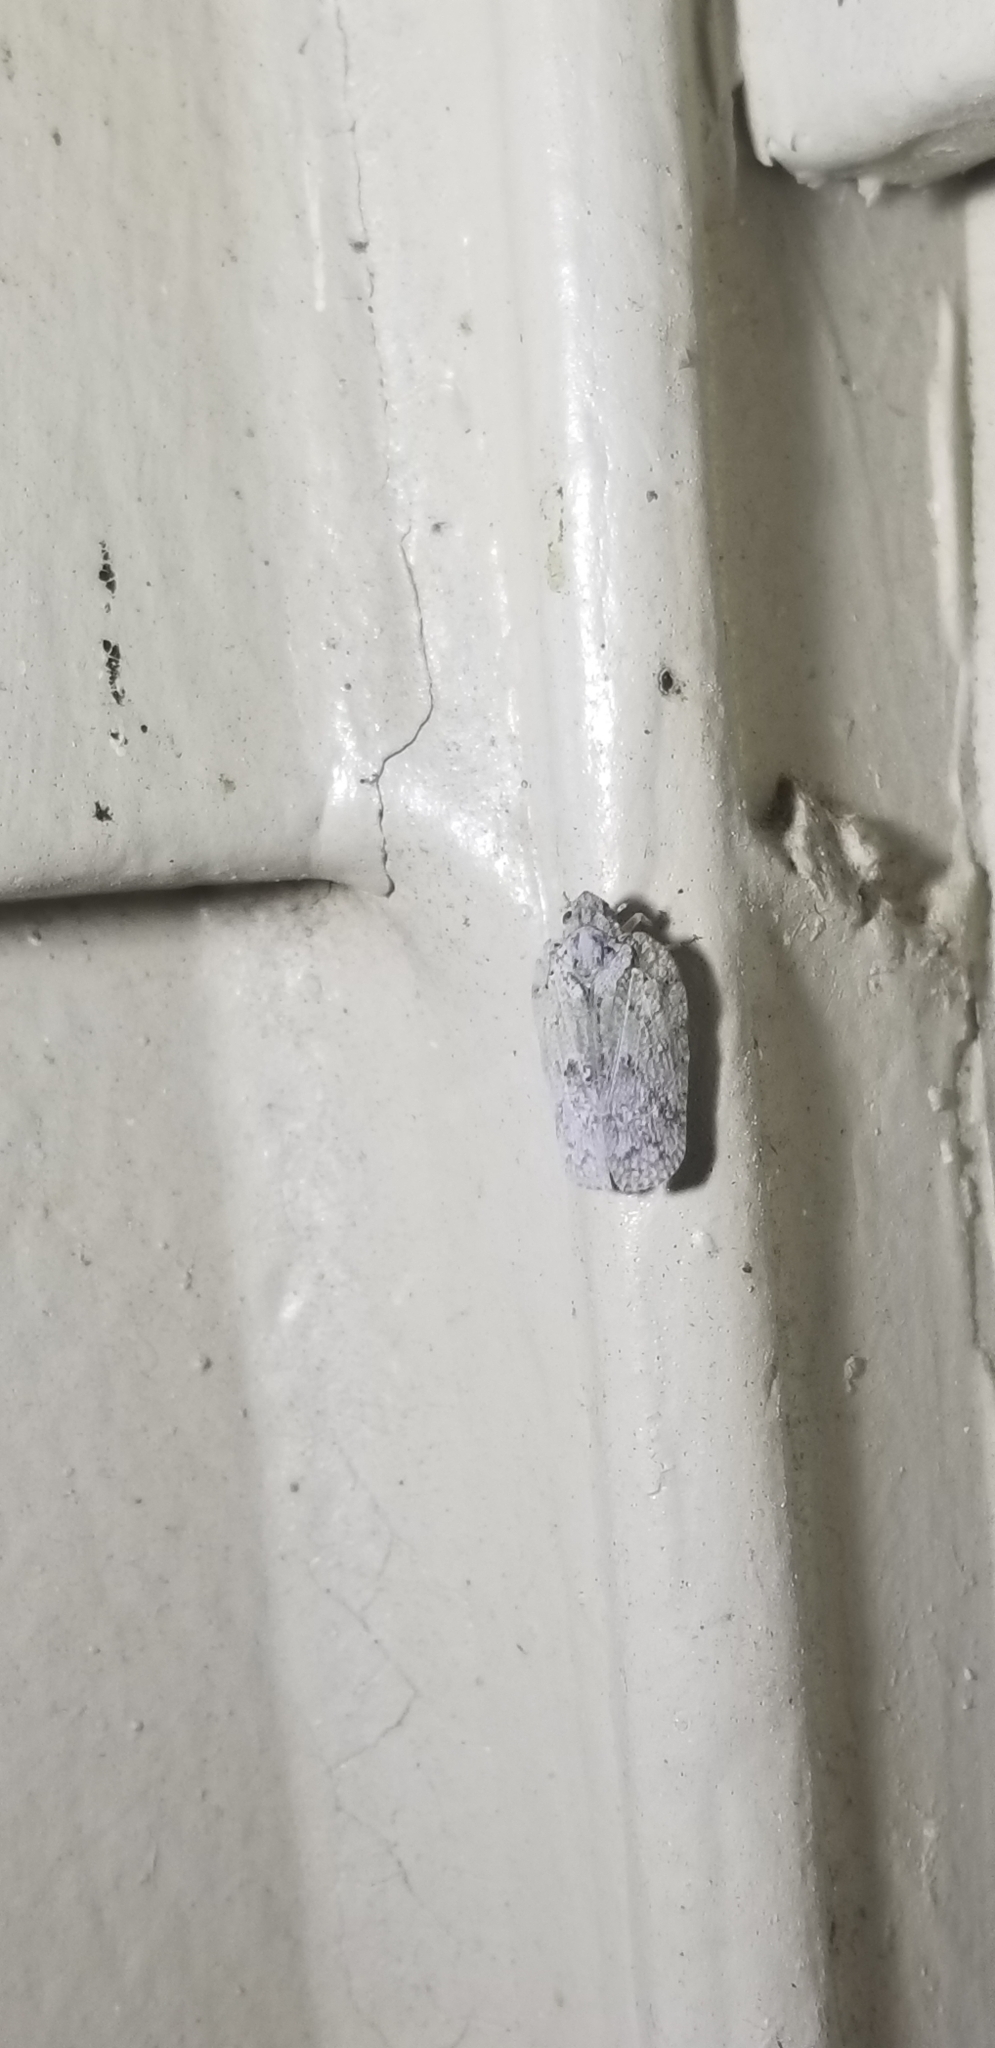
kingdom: Animalia
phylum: Arthropoda
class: Insecta
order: Hemiptera
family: Flatidae
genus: Flatoidinus
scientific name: Flatoidinus punctatus
